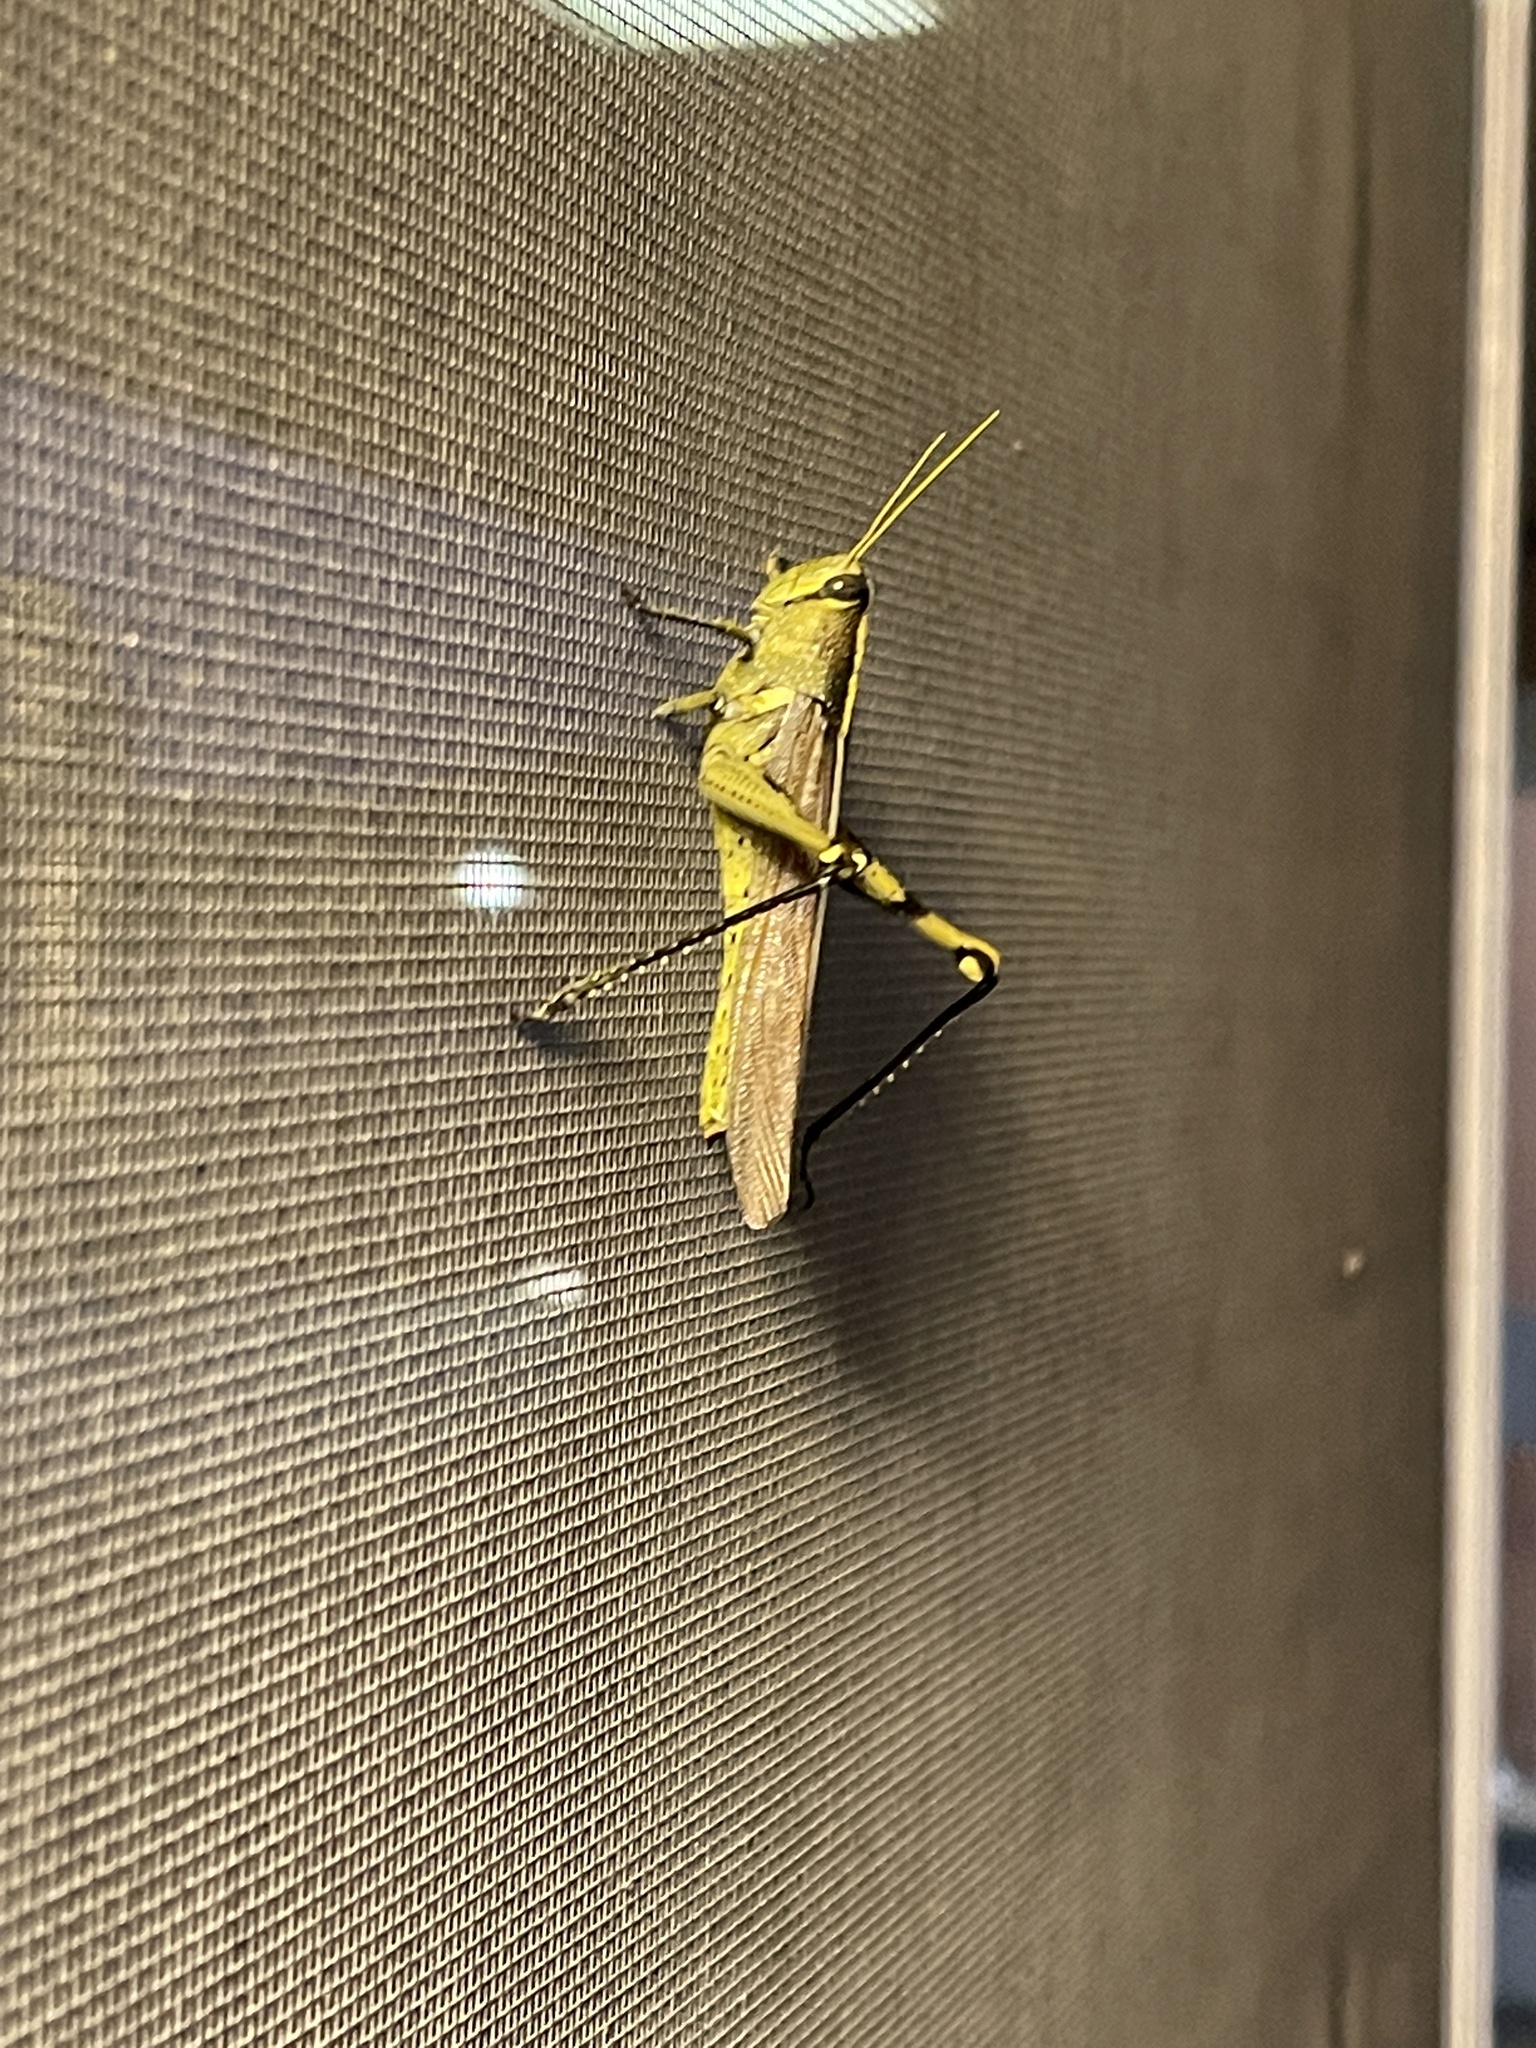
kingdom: Animalia
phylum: Arthropoda
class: Insecta
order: Orthoptera
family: Acrididae
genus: Schistocerca
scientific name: Schistocerca obscura
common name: Obscure bird grasshopper
